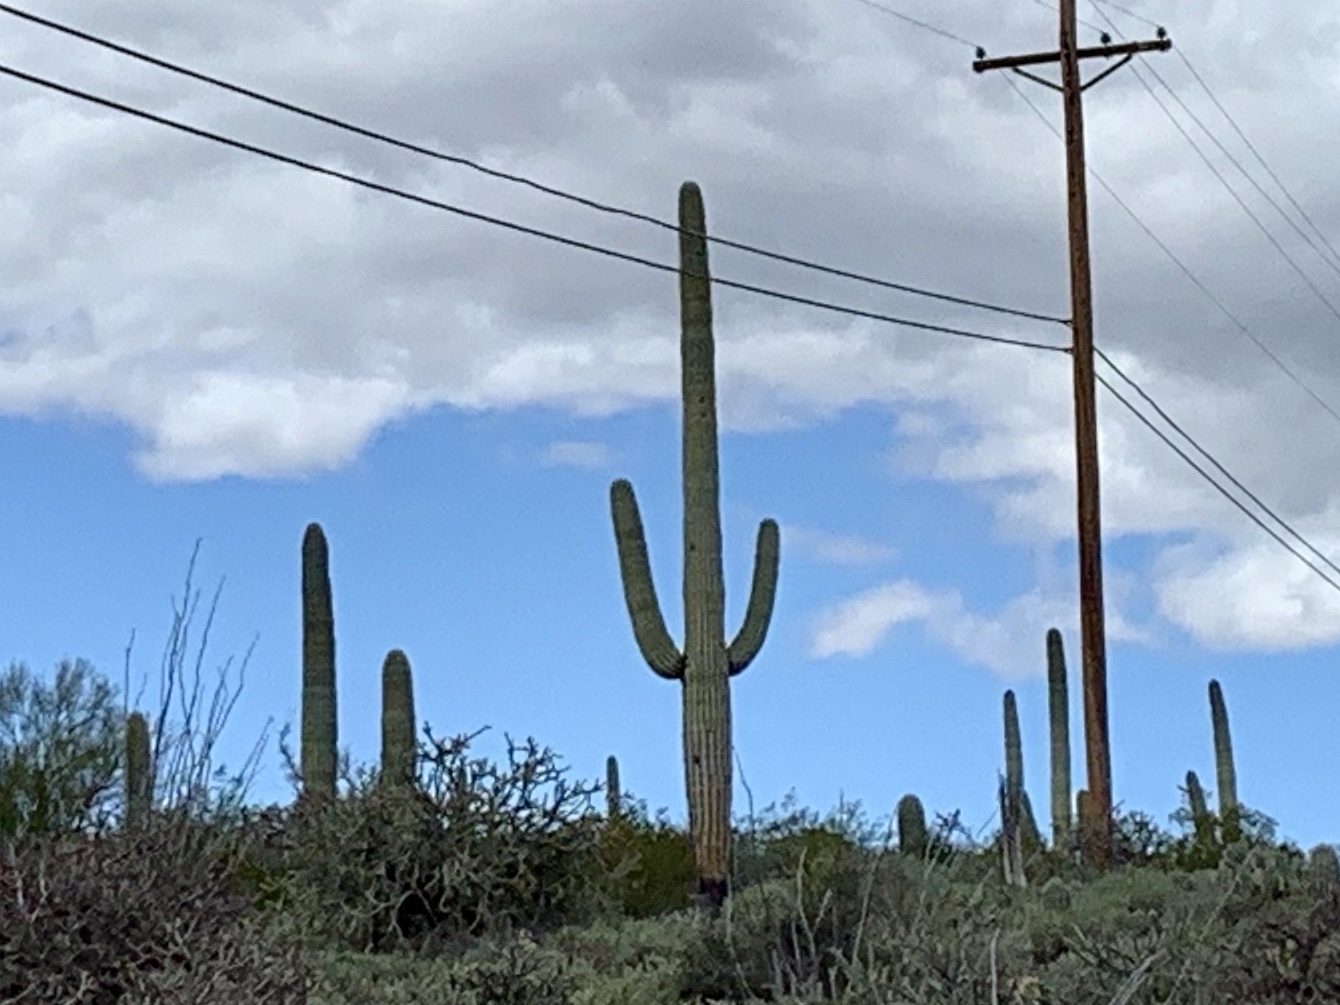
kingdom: Plantae
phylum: Tracheophyta
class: Magnoliopsida
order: Caryophyllales
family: Cactaceae
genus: Carnegiea
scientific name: Carnegiea gigantea
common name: Saguaro
